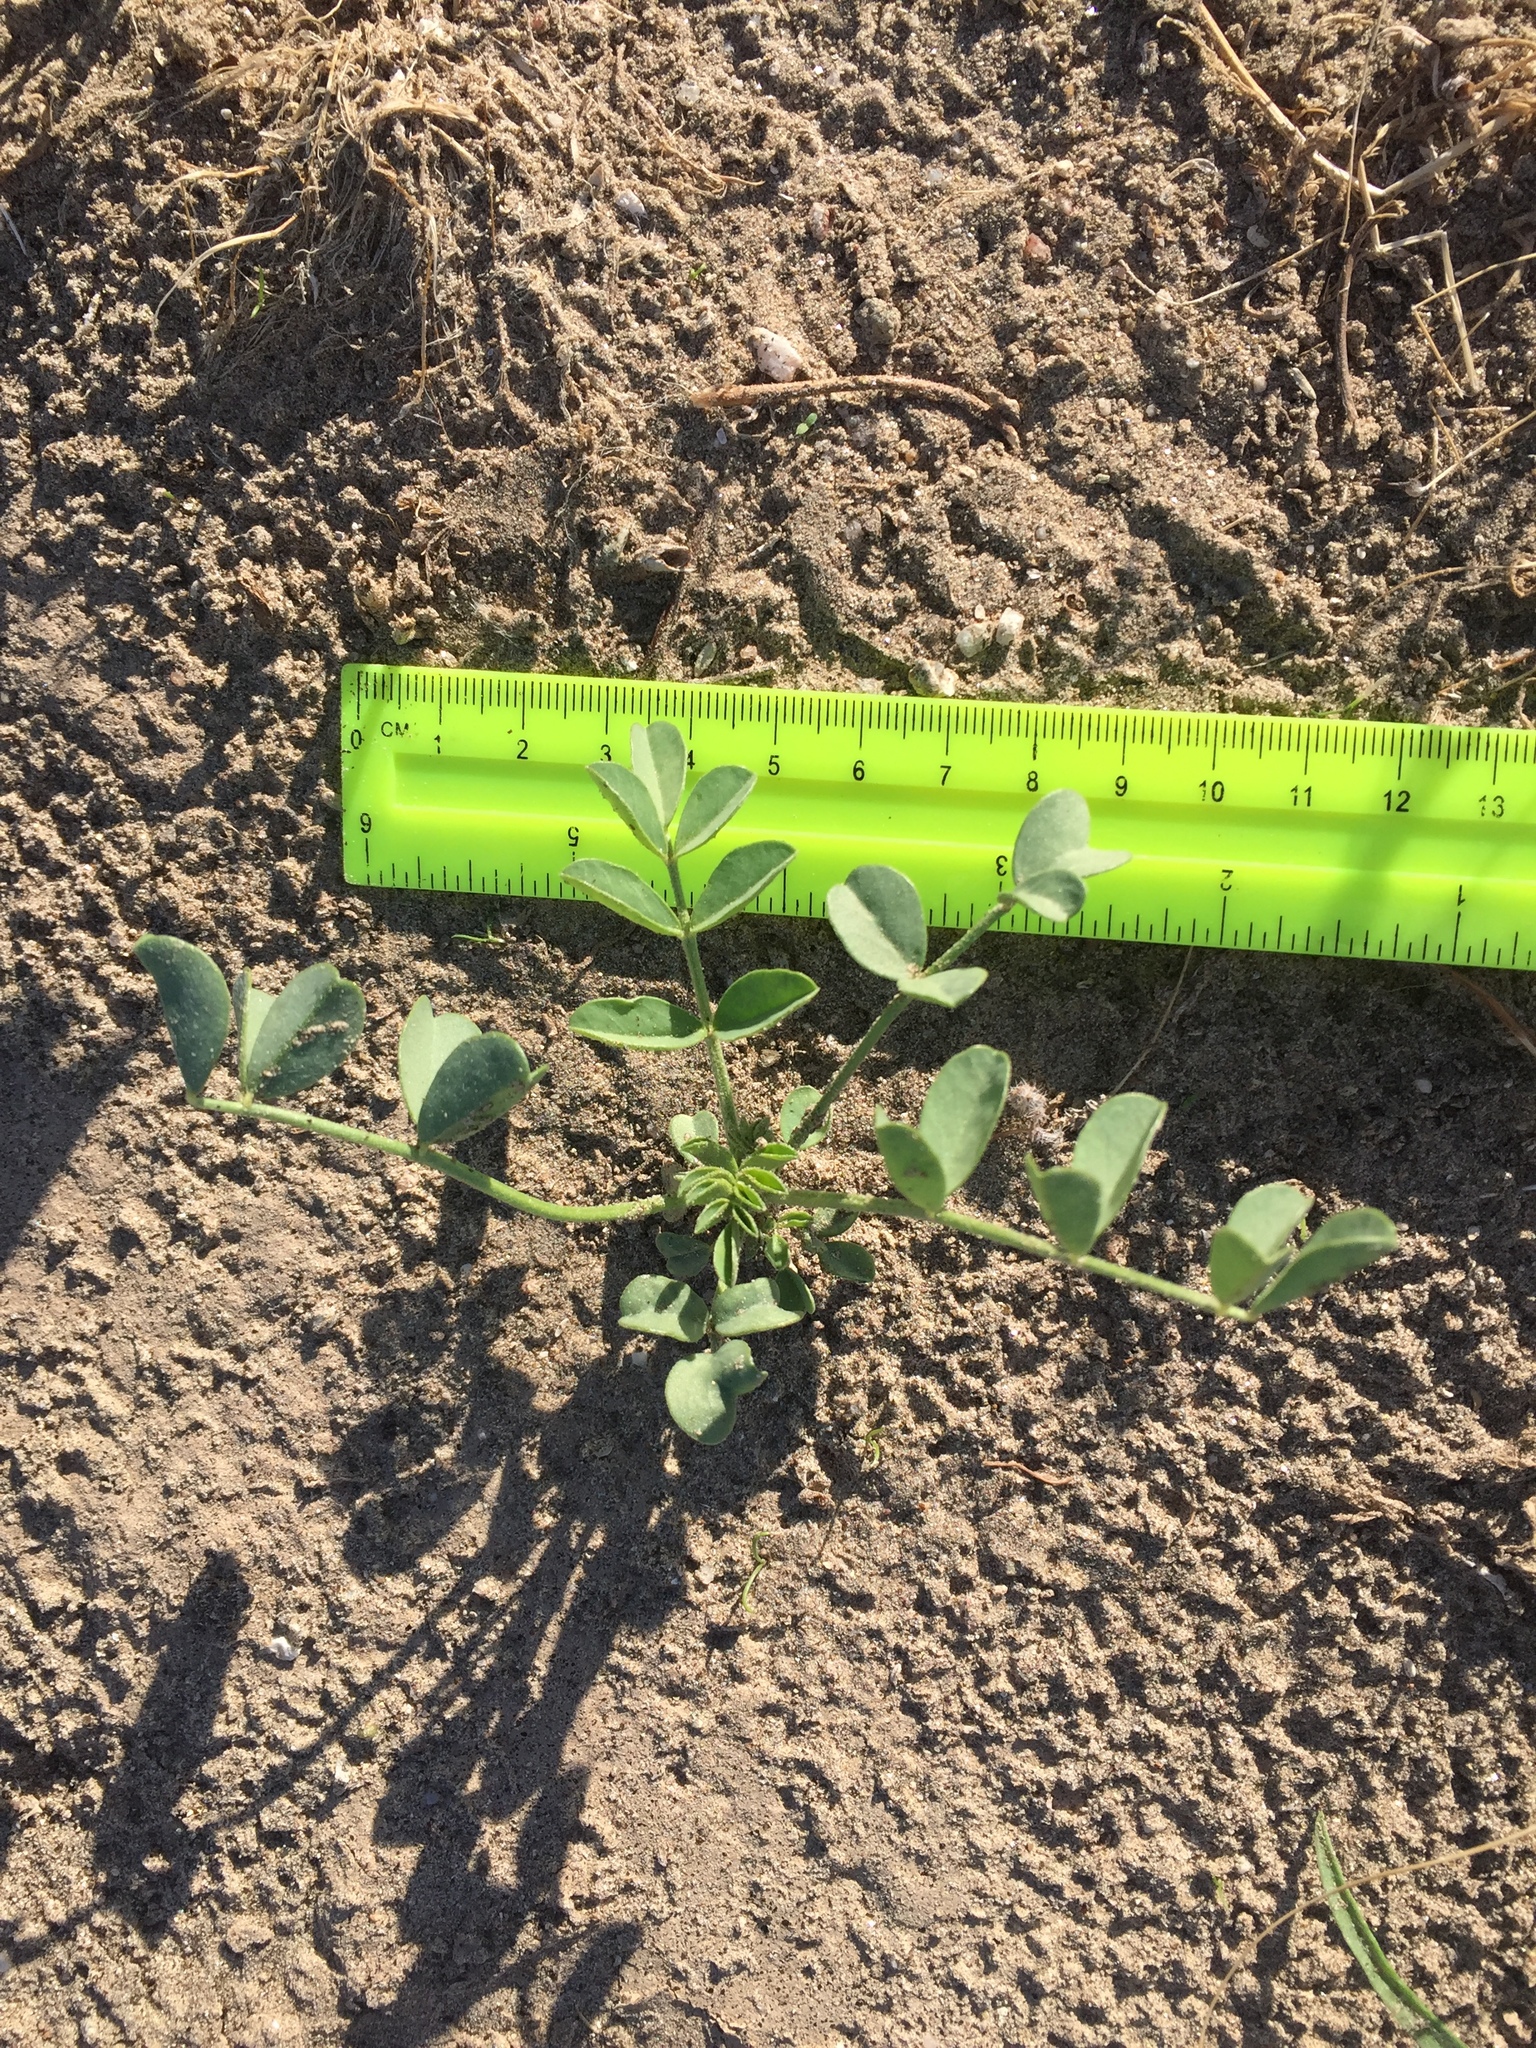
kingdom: Plantae
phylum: Tracheophyta
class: Magnoliopsida
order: Fabales
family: Fabaceae
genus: Astragalus
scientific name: Astragalus crotalariae
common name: Salton milkvetch
